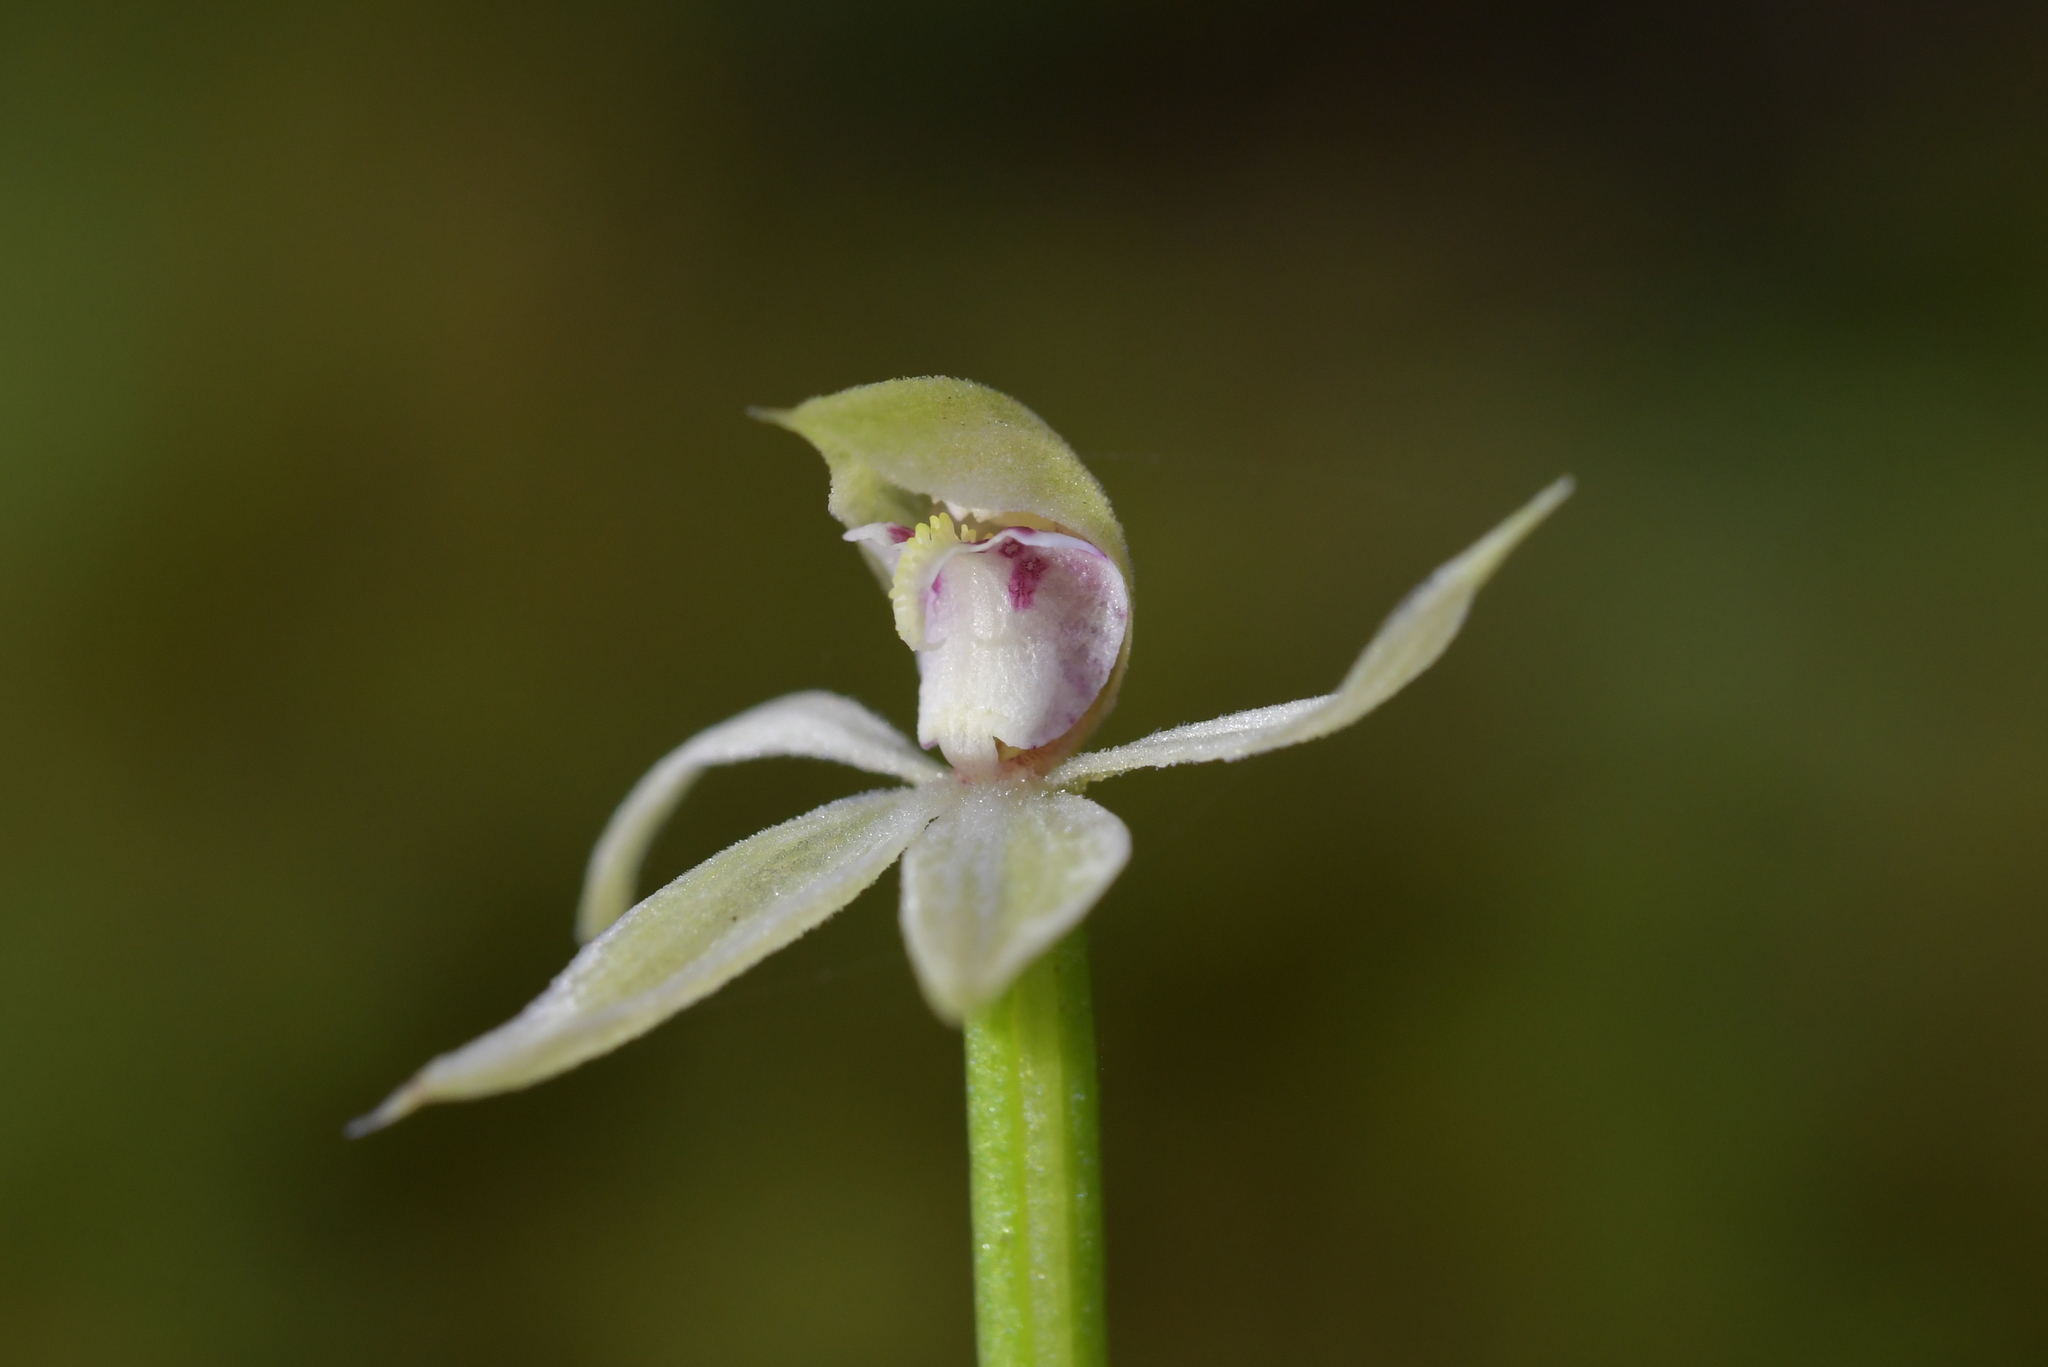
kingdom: Plantae
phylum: Tracheophyta
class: Liliopsida
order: Asparagales
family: Orchidaceae
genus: Adenochilus
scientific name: Adenochilus gracilis
